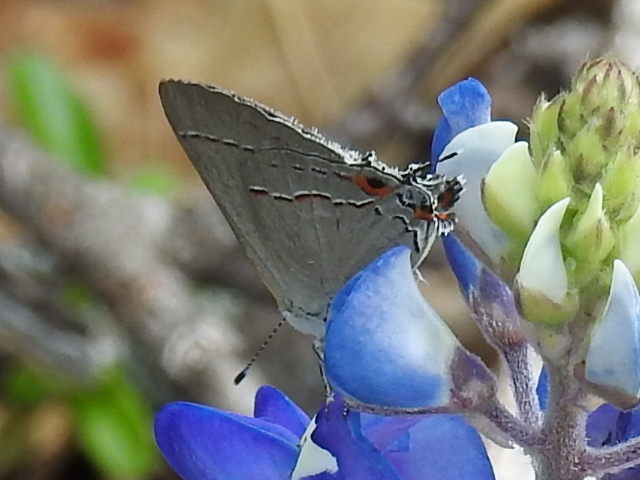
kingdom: Animalia
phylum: Arthropoda
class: Insecta
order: Lepidoptera
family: Lycaenidae
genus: Strymon
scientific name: Strymon melinus
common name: Gray hairstreak
